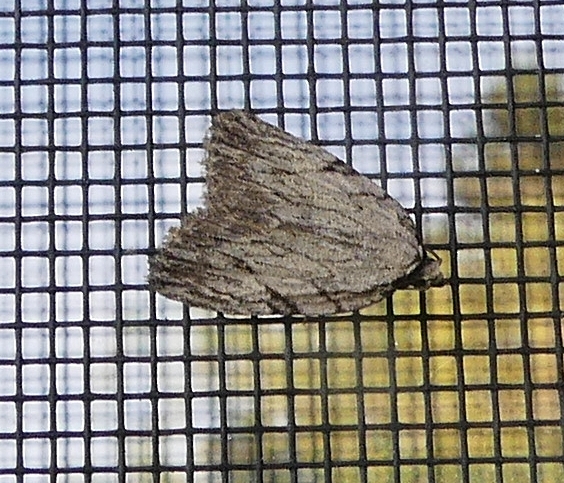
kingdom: Animalia
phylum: Arthropoda
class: Insecta
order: Lepidoptera
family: Noctuidae
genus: Balsa
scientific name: Balsa tristrigella
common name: Three-lined balsa moth
